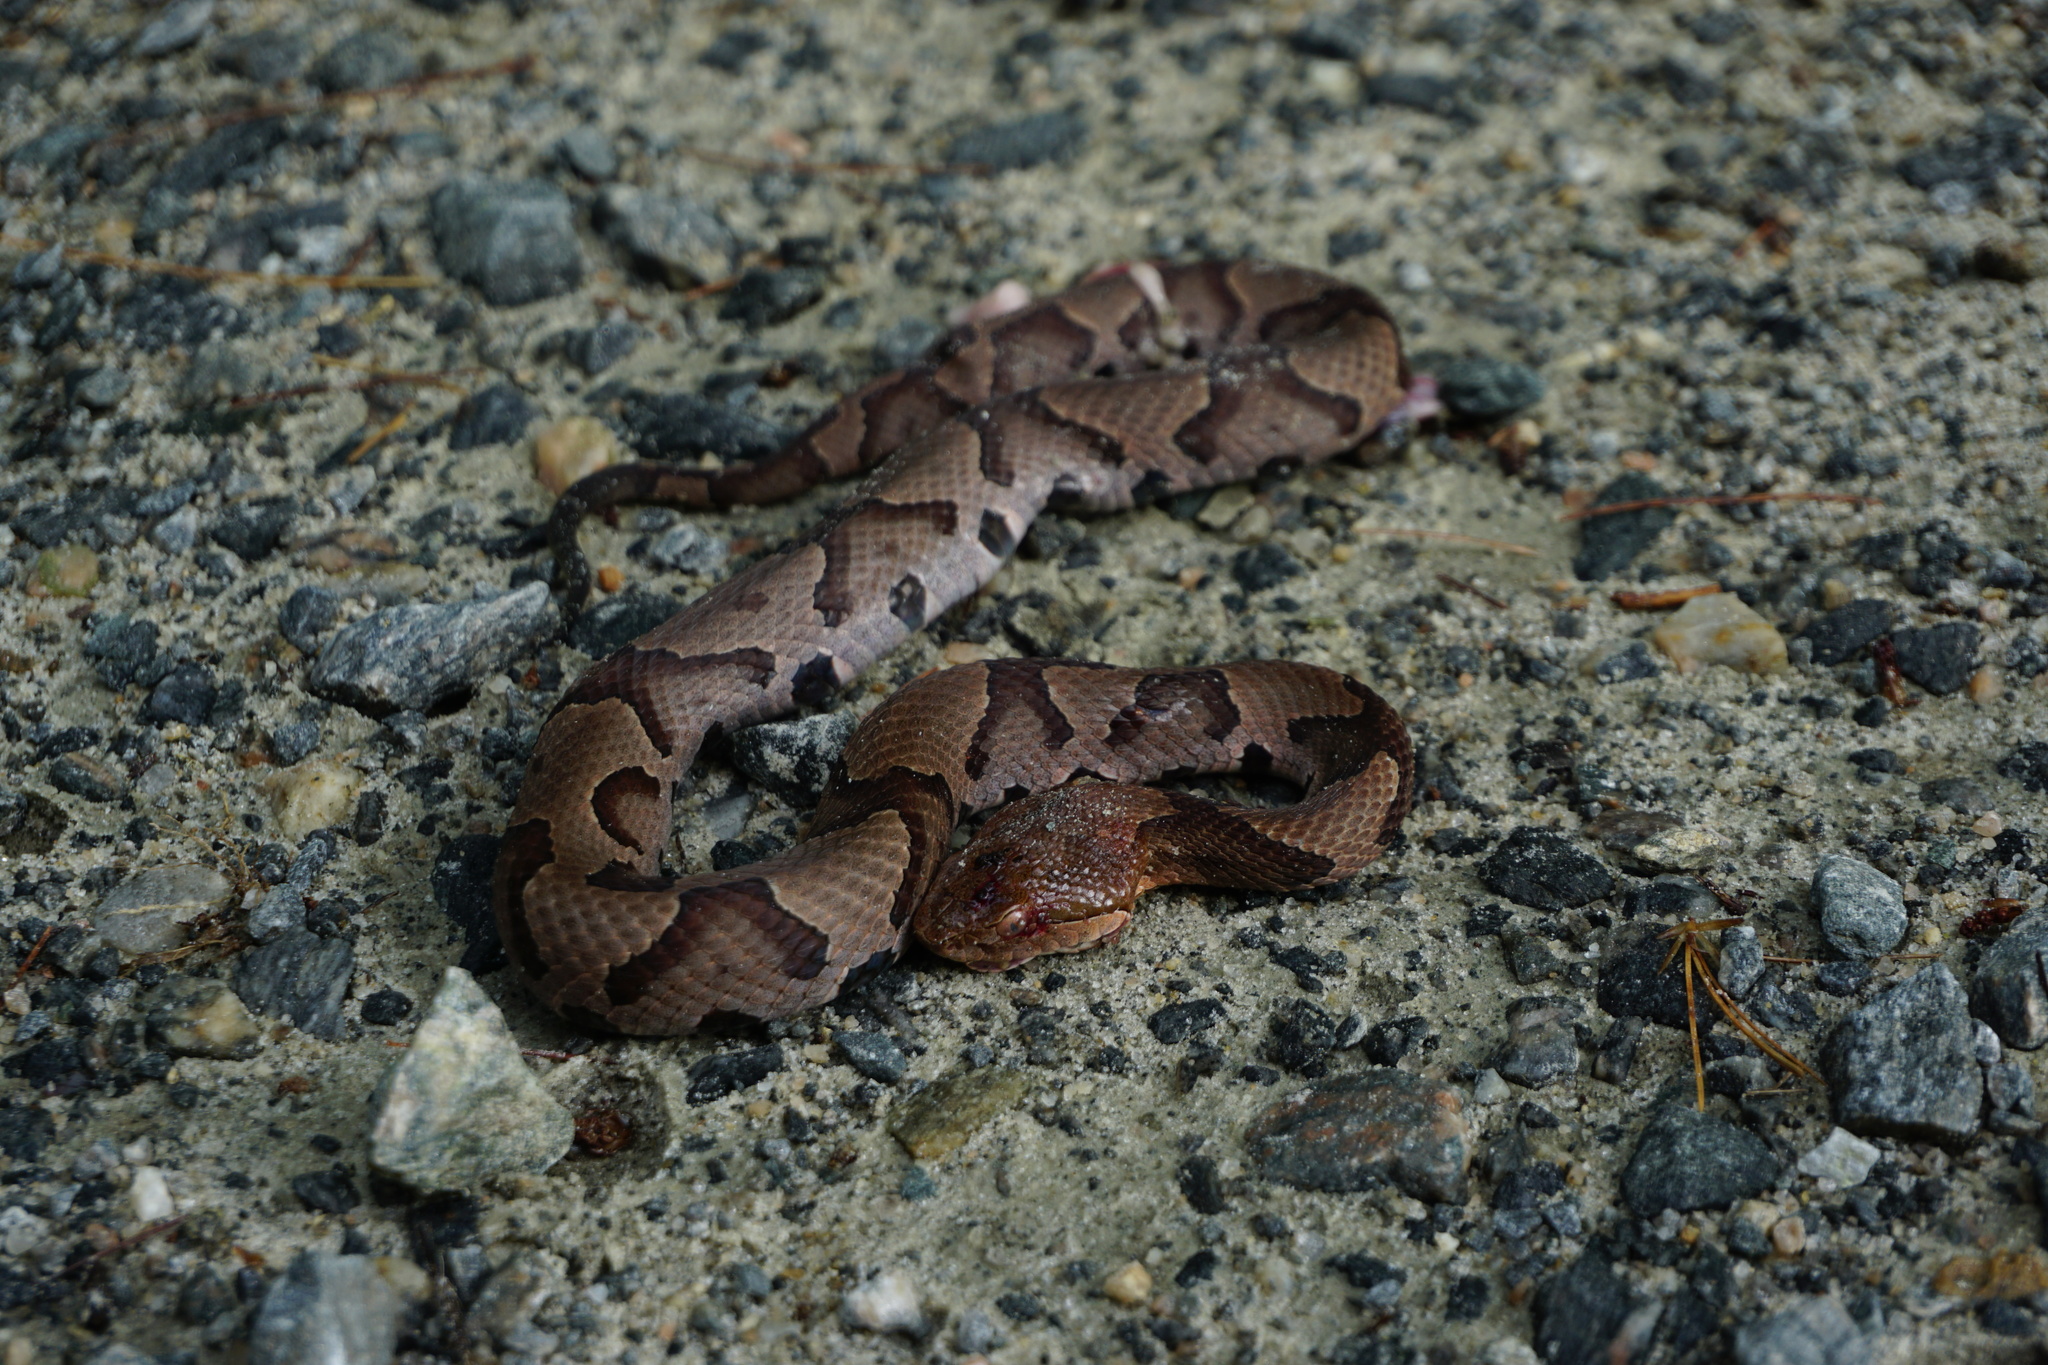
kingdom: Animalia
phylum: Chordata
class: Squamata
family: Viperidae
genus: Agkistrodon
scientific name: Agkistrodon contortrix
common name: Northern copperhead
